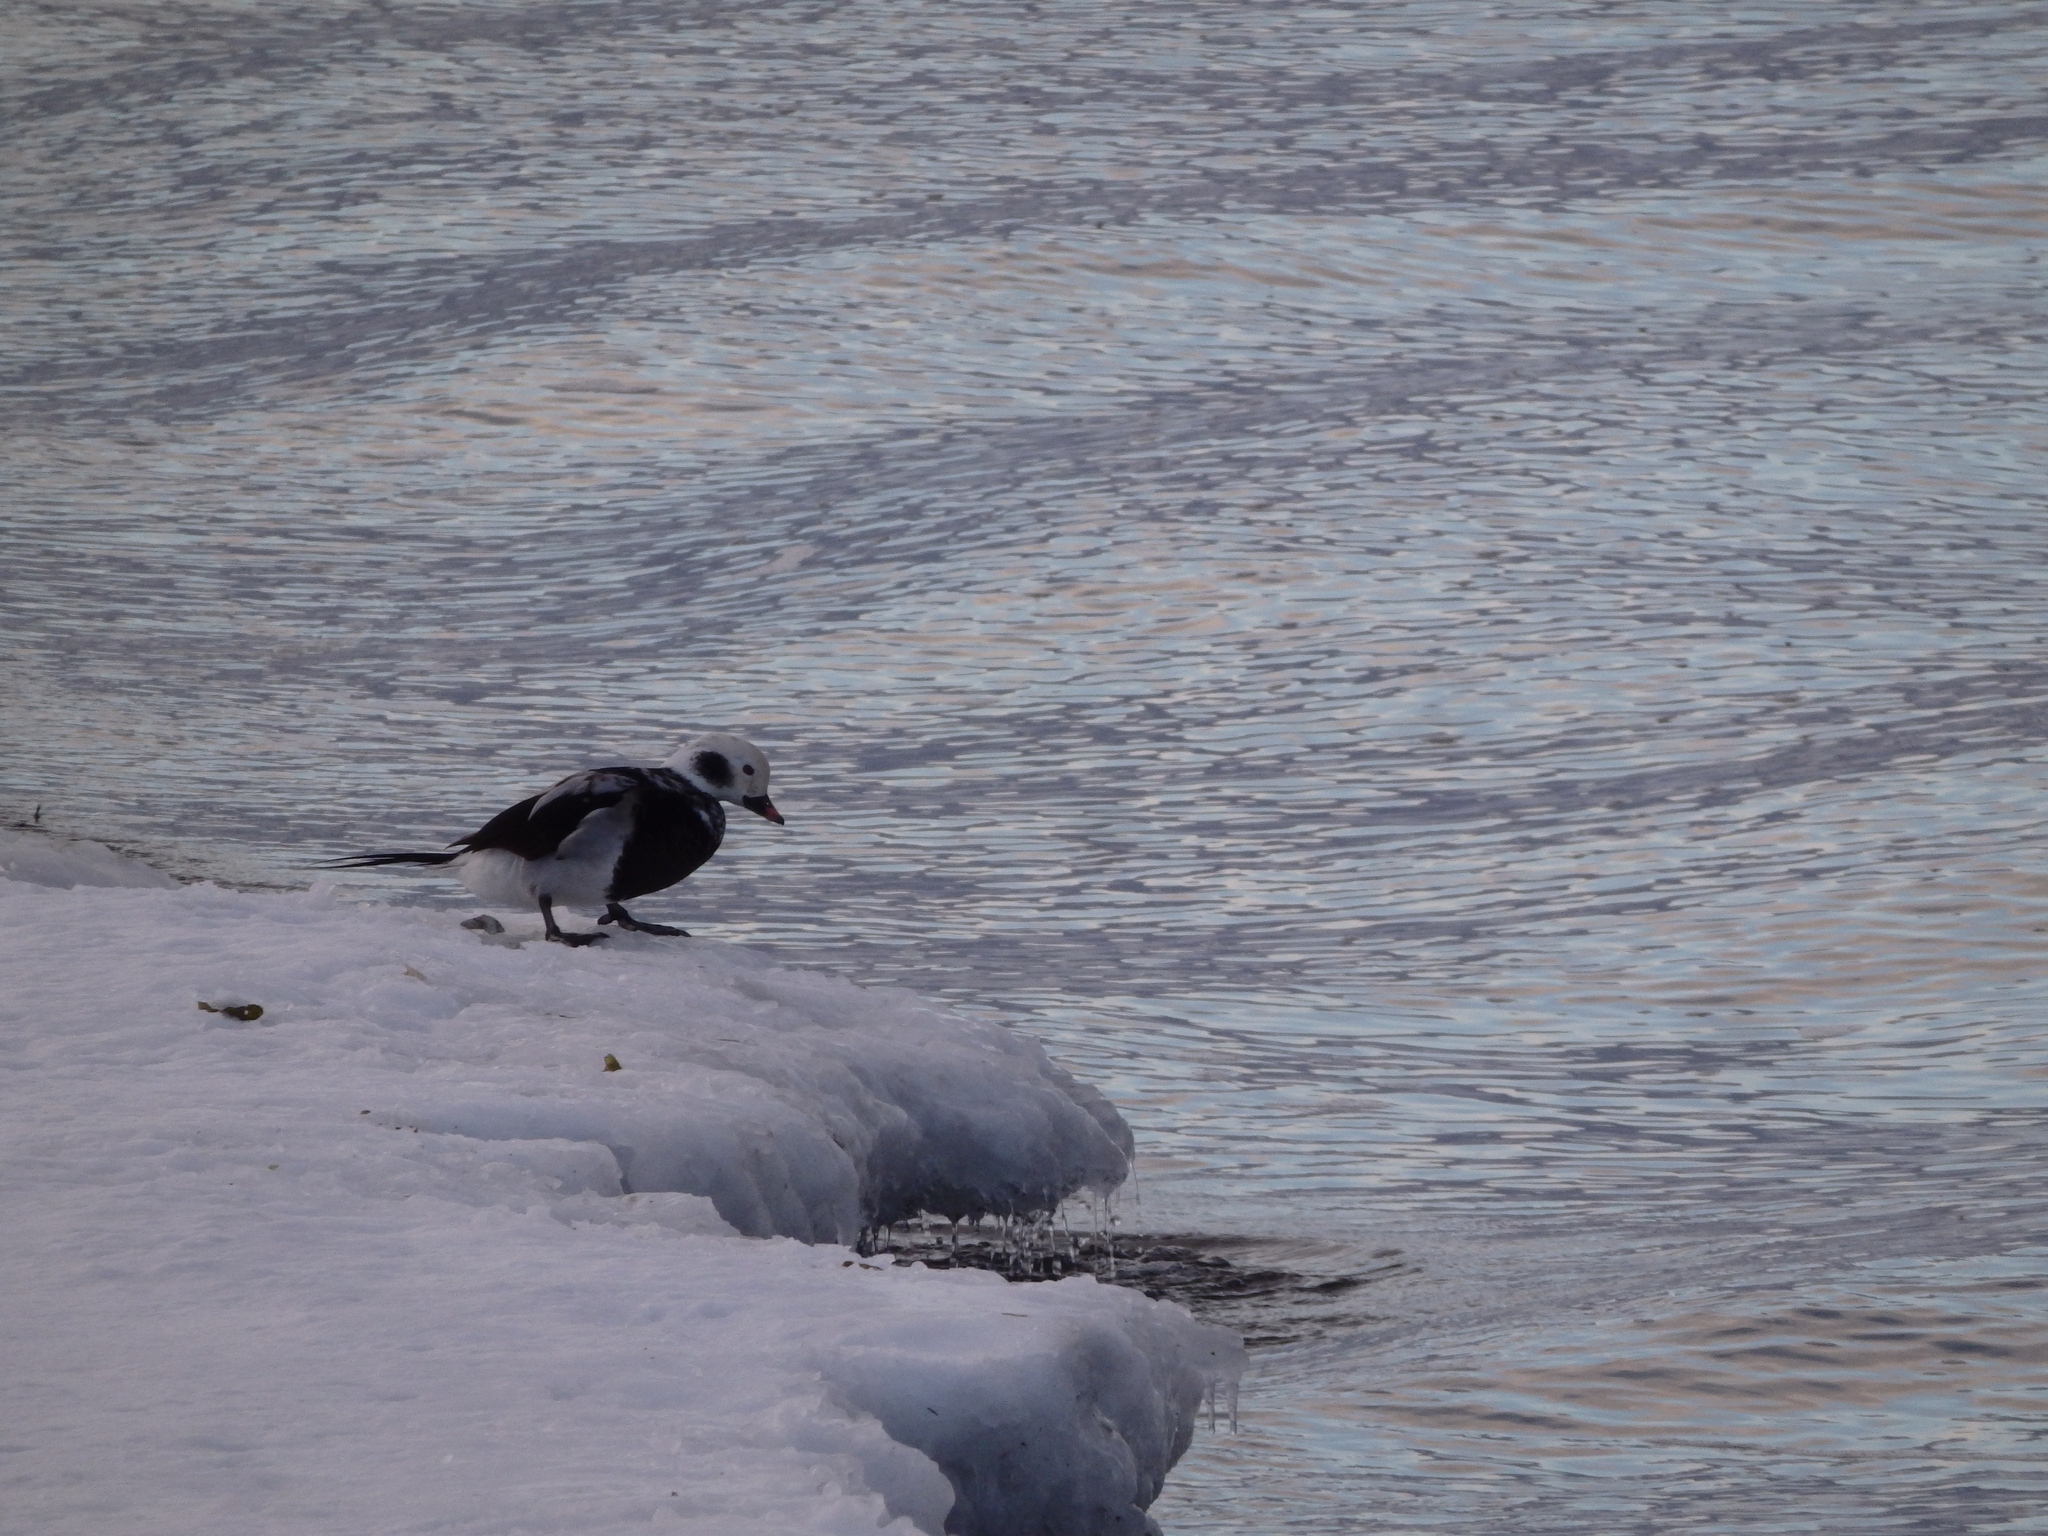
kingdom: Animalia
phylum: Chordata
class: Aves
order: Anseriformes
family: Anatidae
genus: Clangula
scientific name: Clangula hyemalis
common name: Long-tailed duck
